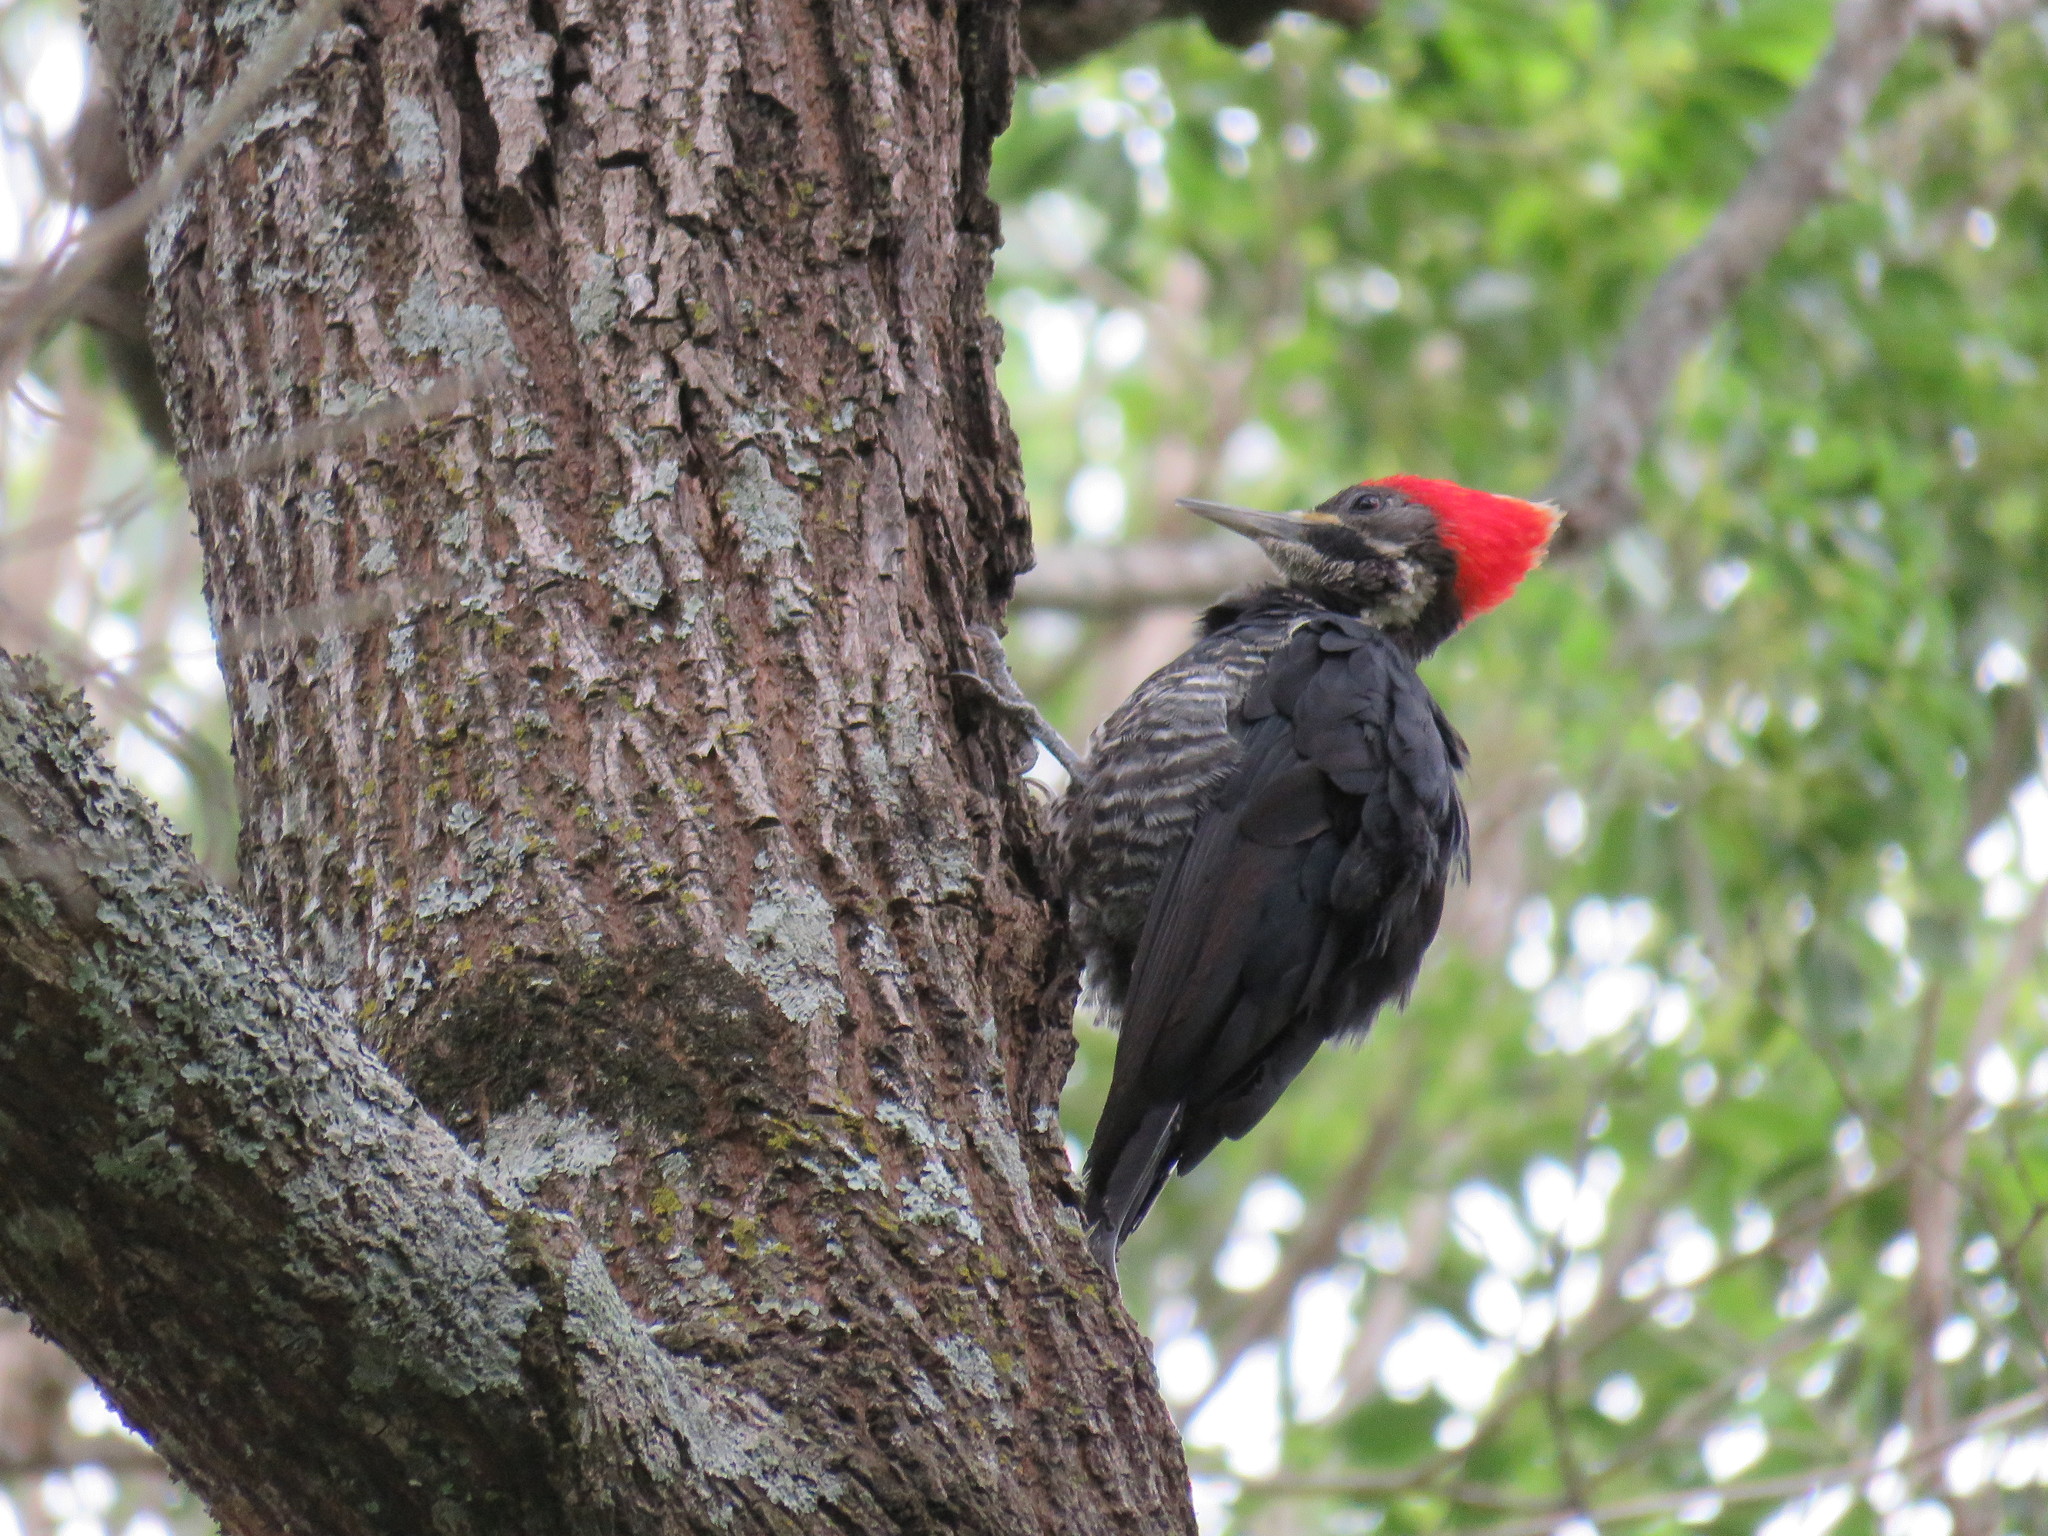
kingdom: Animalia
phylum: Chordata
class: Aves
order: Piciformes
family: Picidae
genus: Dryocopus
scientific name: Dryocopus lineatus
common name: Lineated woodpecker
